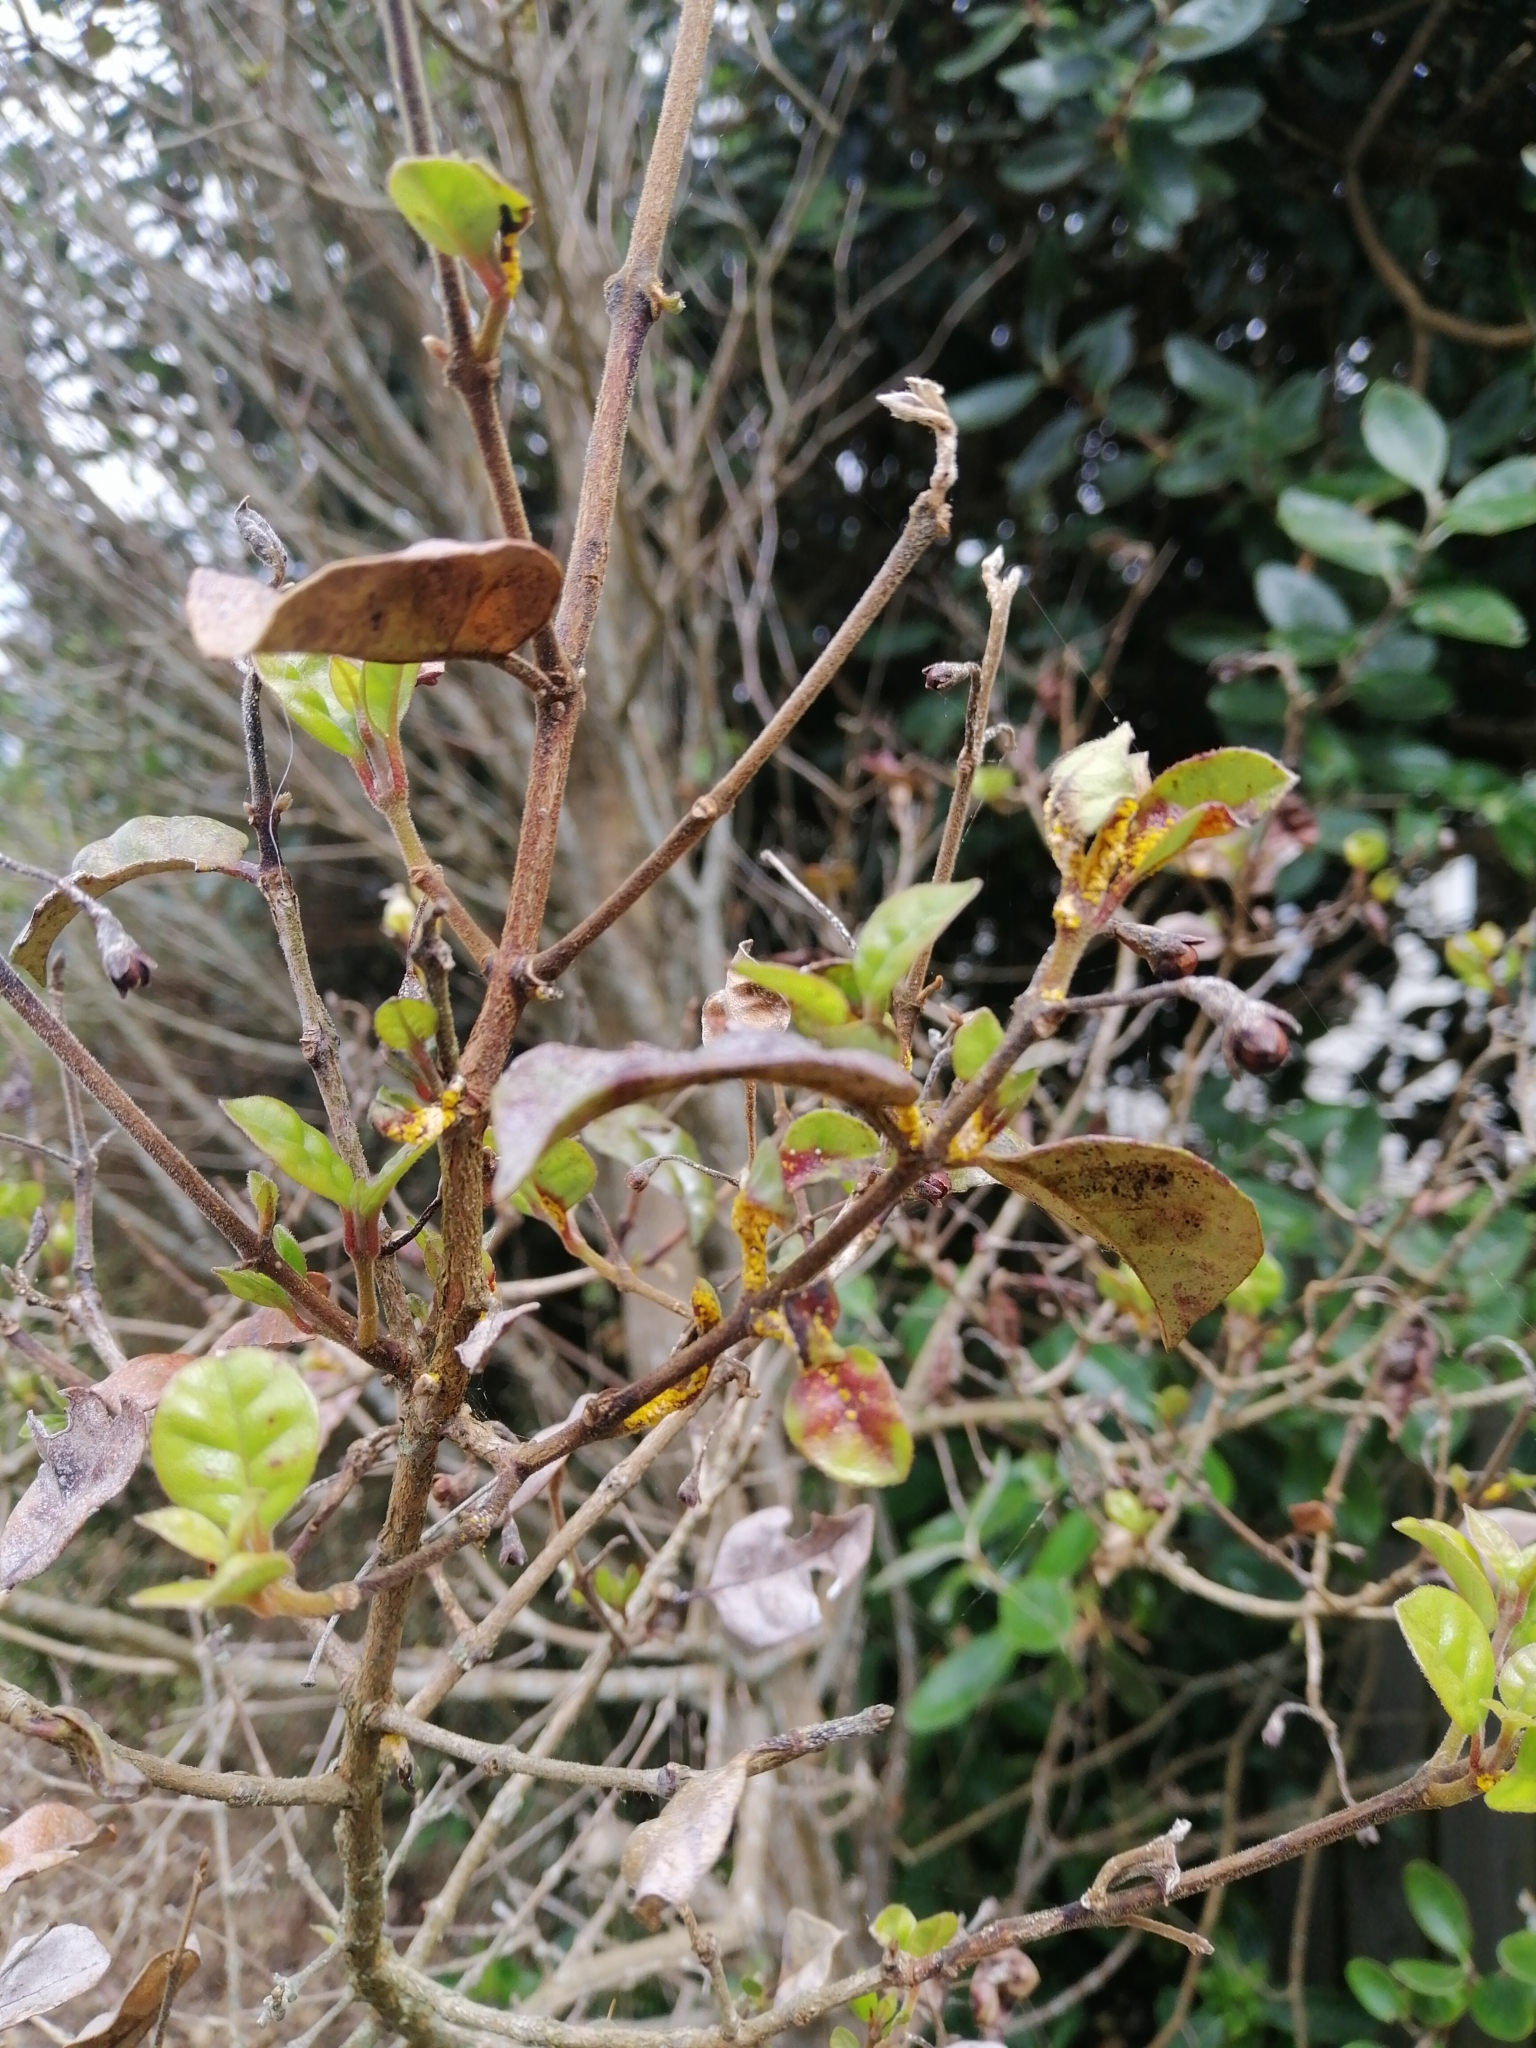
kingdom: Fungi
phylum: Basidiomycota
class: Pucciniomycetes
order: Pucciniales
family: Sphaerophragmiaceae
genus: Austropuccinia
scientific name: Austropuccinia psidii
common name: Myrtle rust
